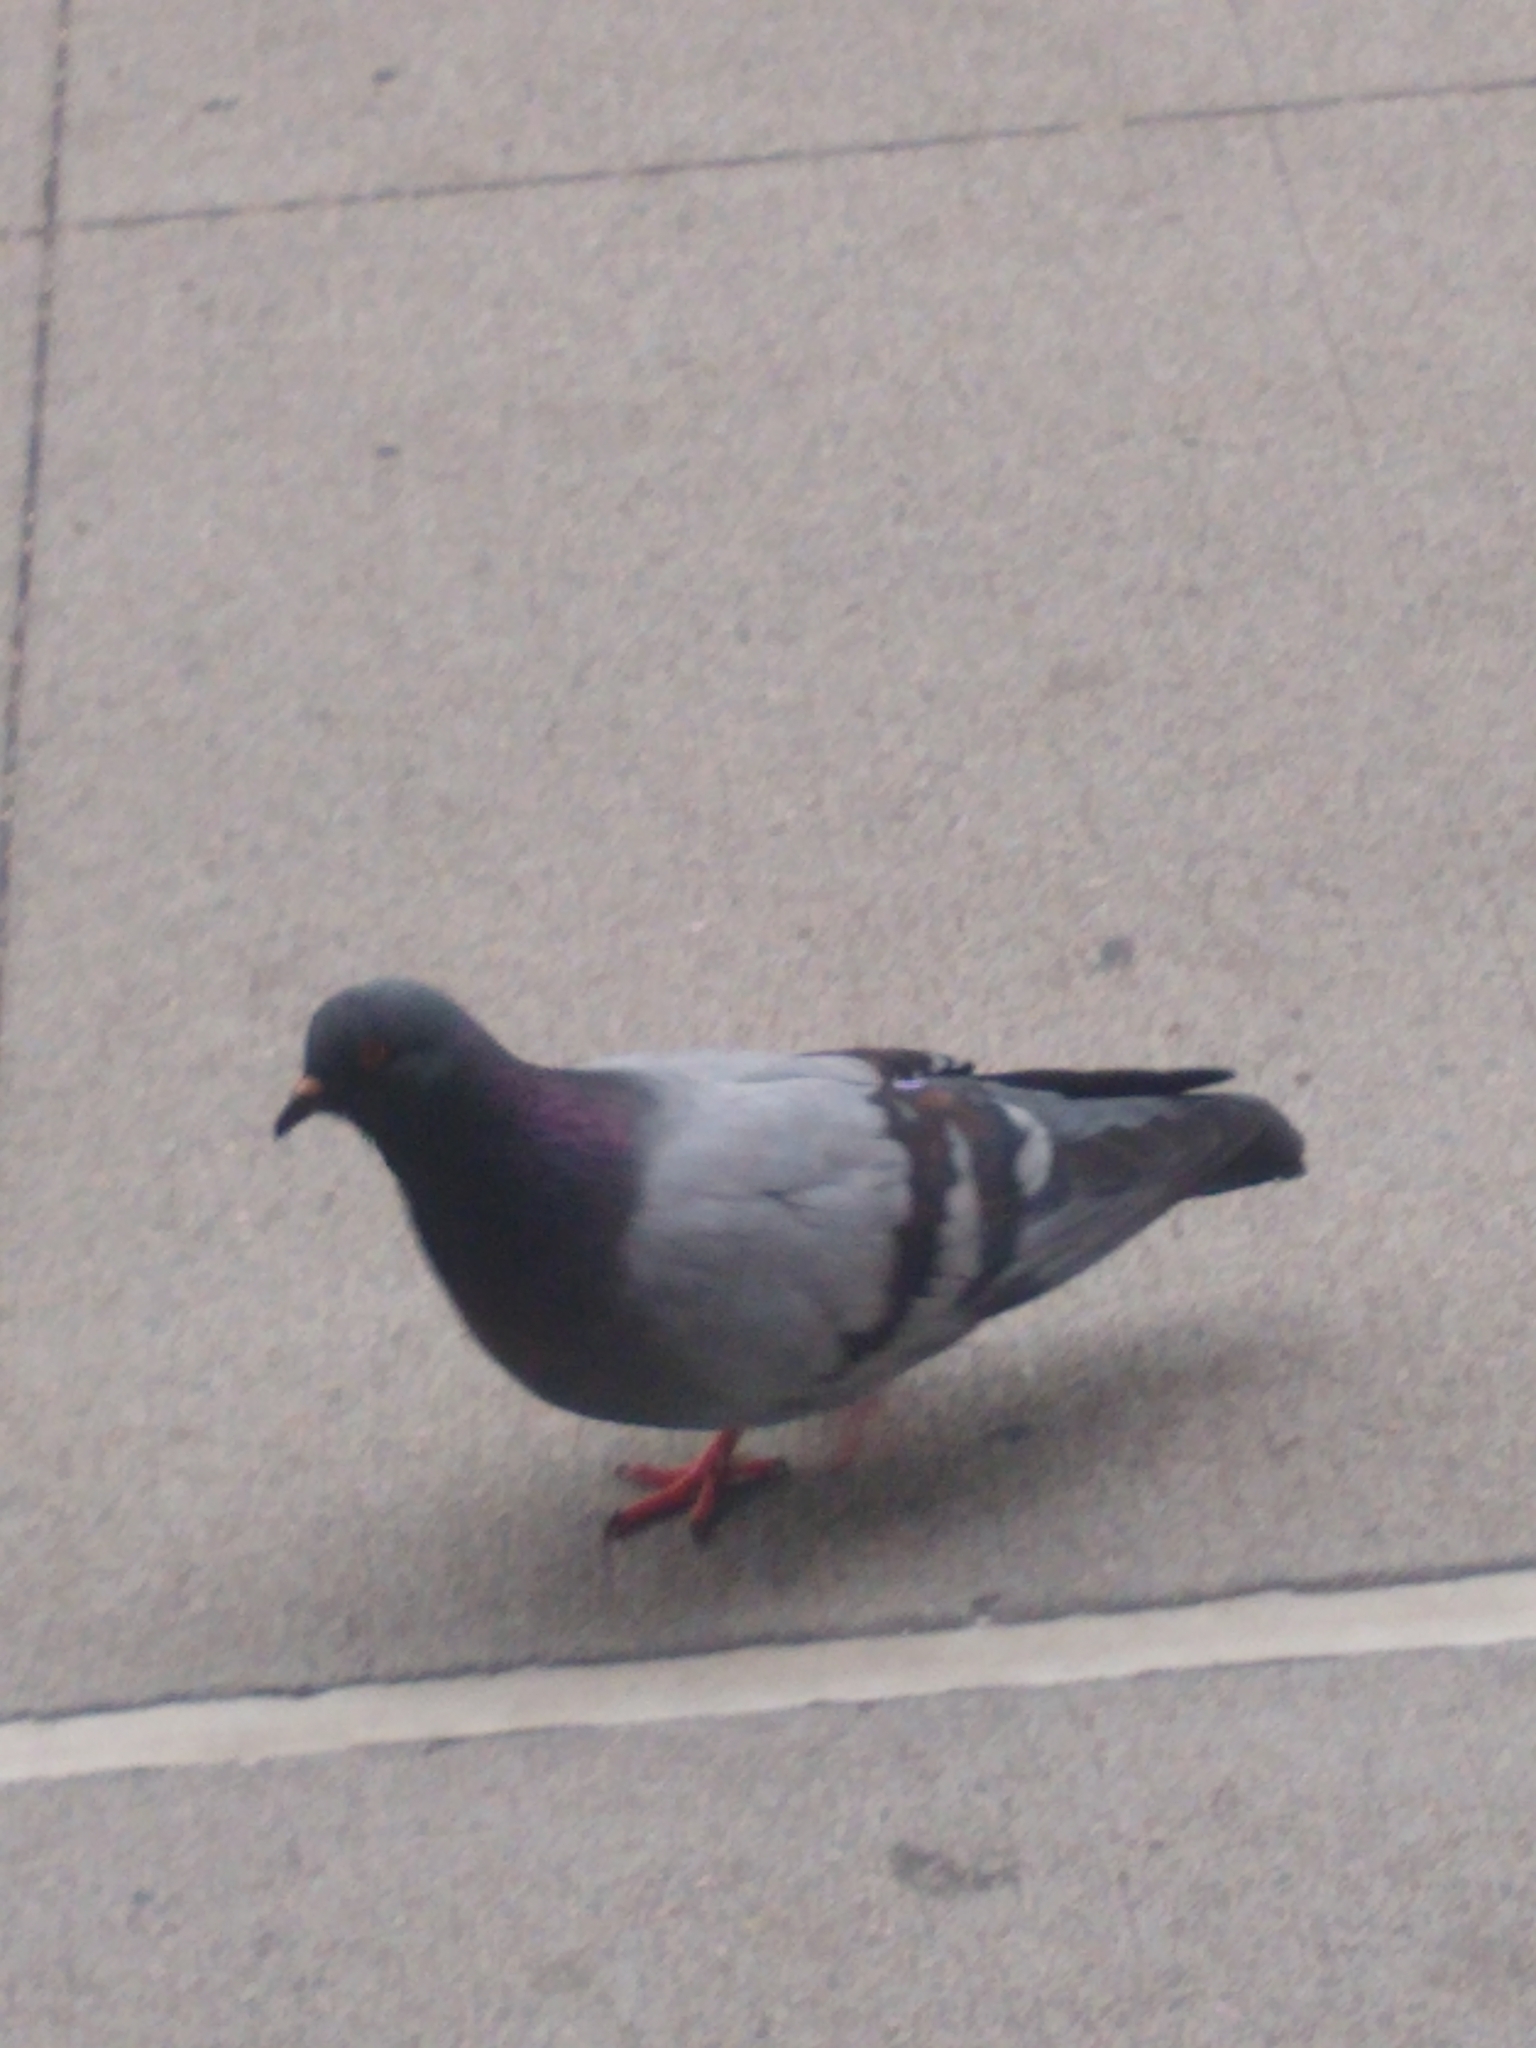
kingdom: Animalia
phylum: Chordata
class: Aves
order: Columbiformes
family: Columbidae
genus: Columba
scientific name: Columba livia
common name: Rock pigeon
